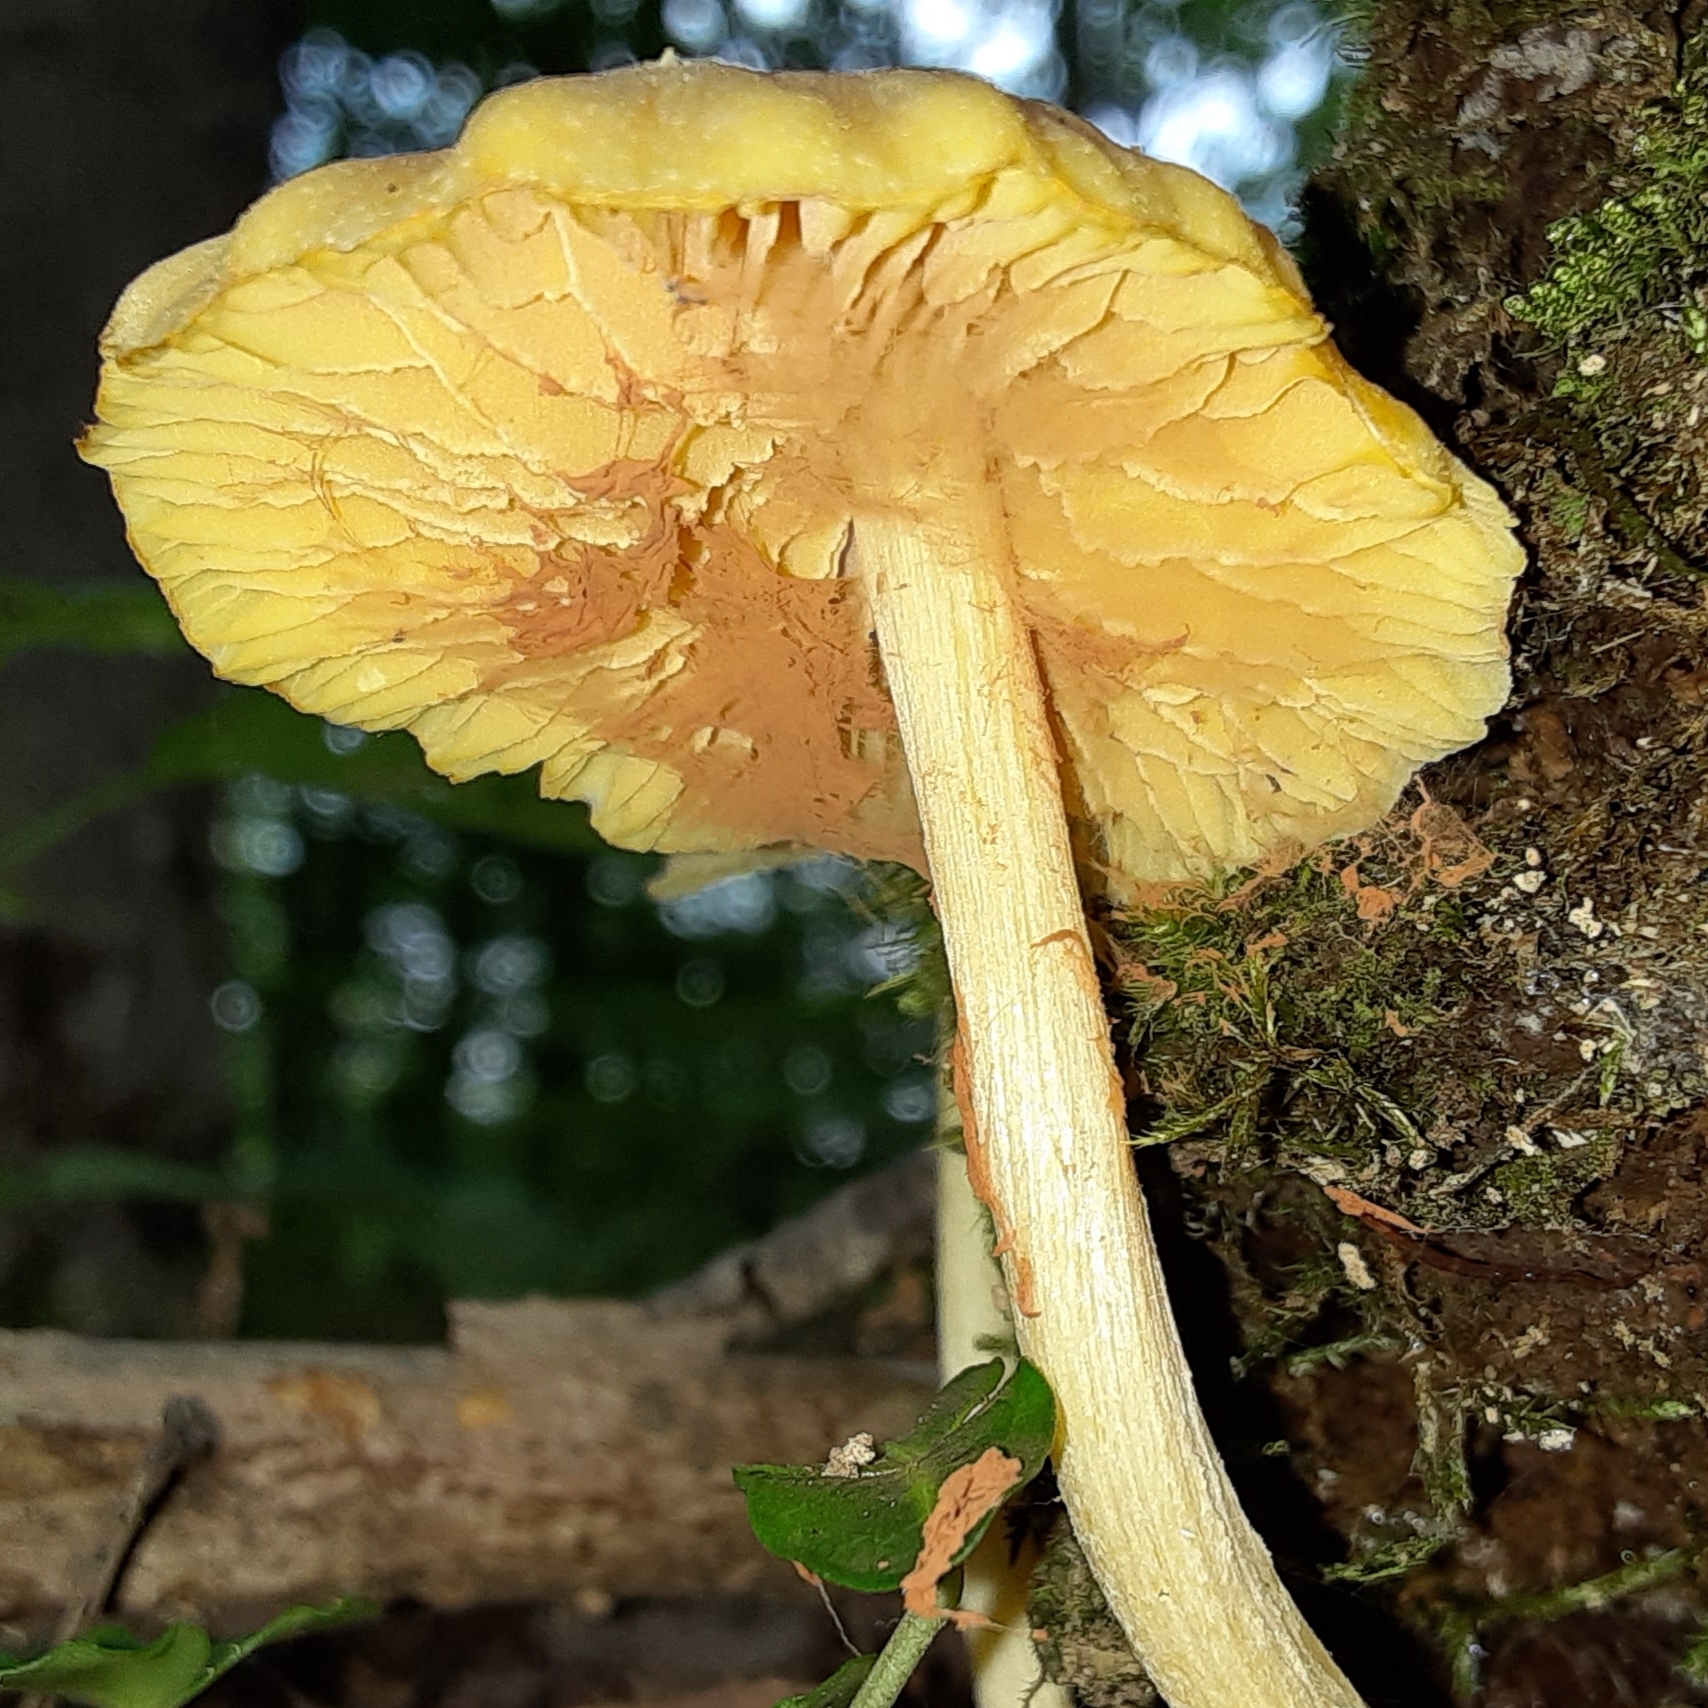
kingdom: Fungi
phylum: Basidiomycota
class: Agaricomycetes
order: Agaricales
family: Entolomataceae
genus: Entoloma
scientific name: Entoloma murrayi
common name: Yellow unicorn entoloma
